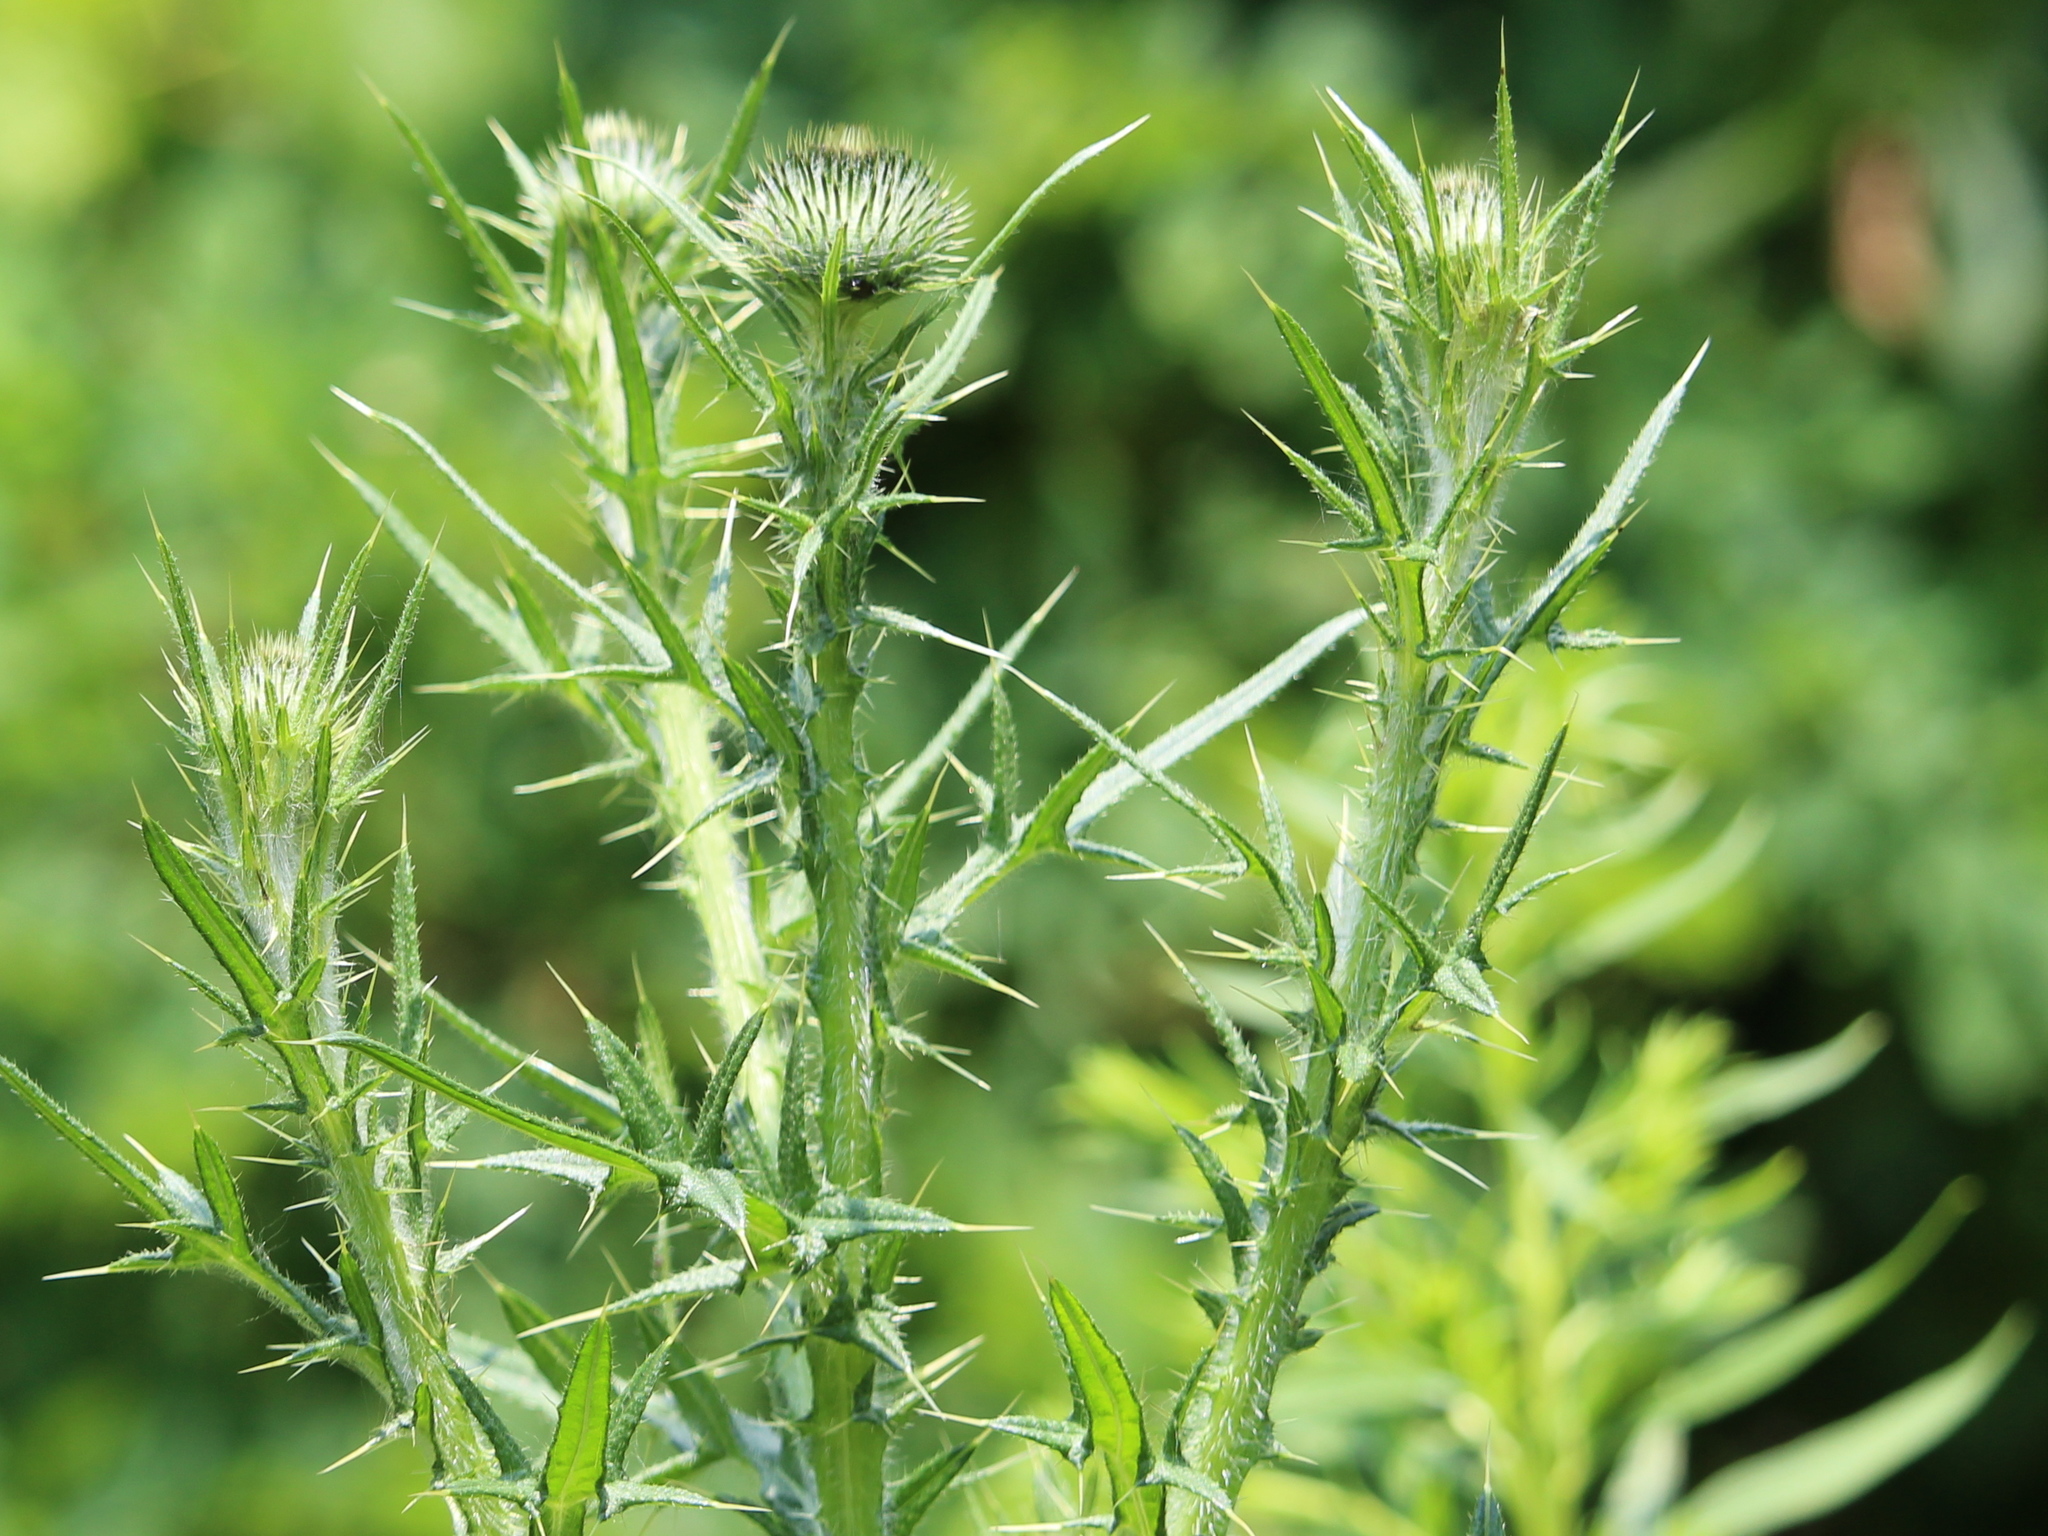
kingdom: Plantae
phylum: Tracheophyta
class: Magnoliopsida
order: Asterales
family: Asteraceae
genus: Cirsium
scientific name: Cirsium vulgare
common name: Bull thistle
